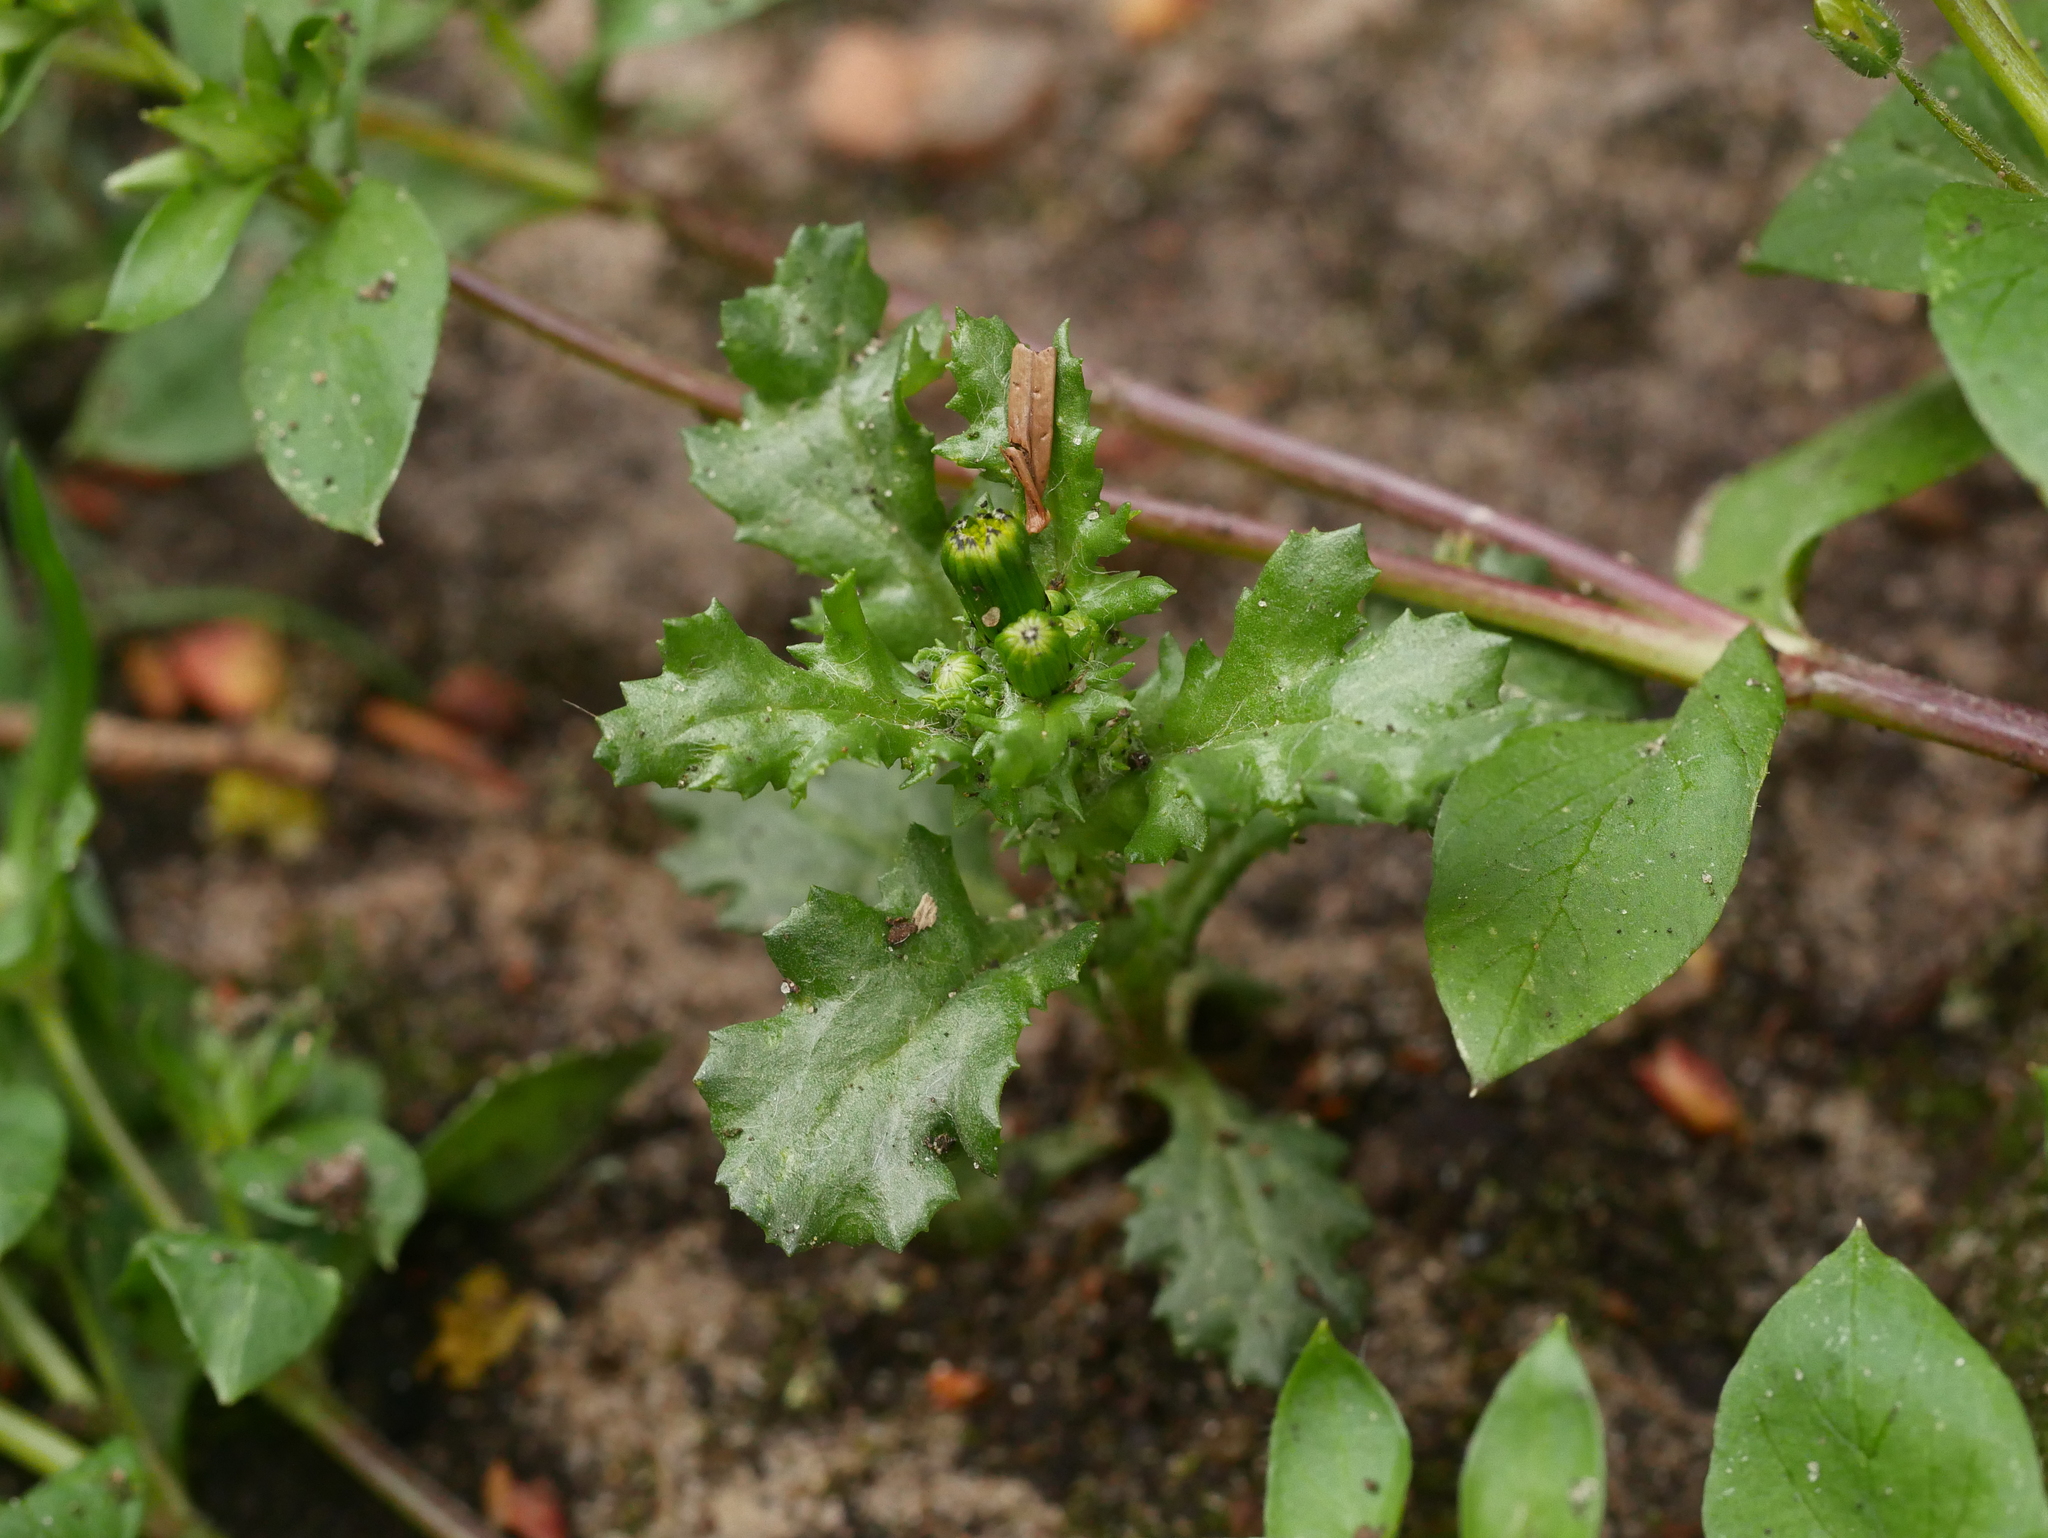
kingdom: Plantae
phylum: Tracheophyta
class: Magnoliopsida
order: Asterales
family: Asteraceae
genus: Senecio
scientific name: Senecio vulgaris
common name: Old-man-in-the-spring
